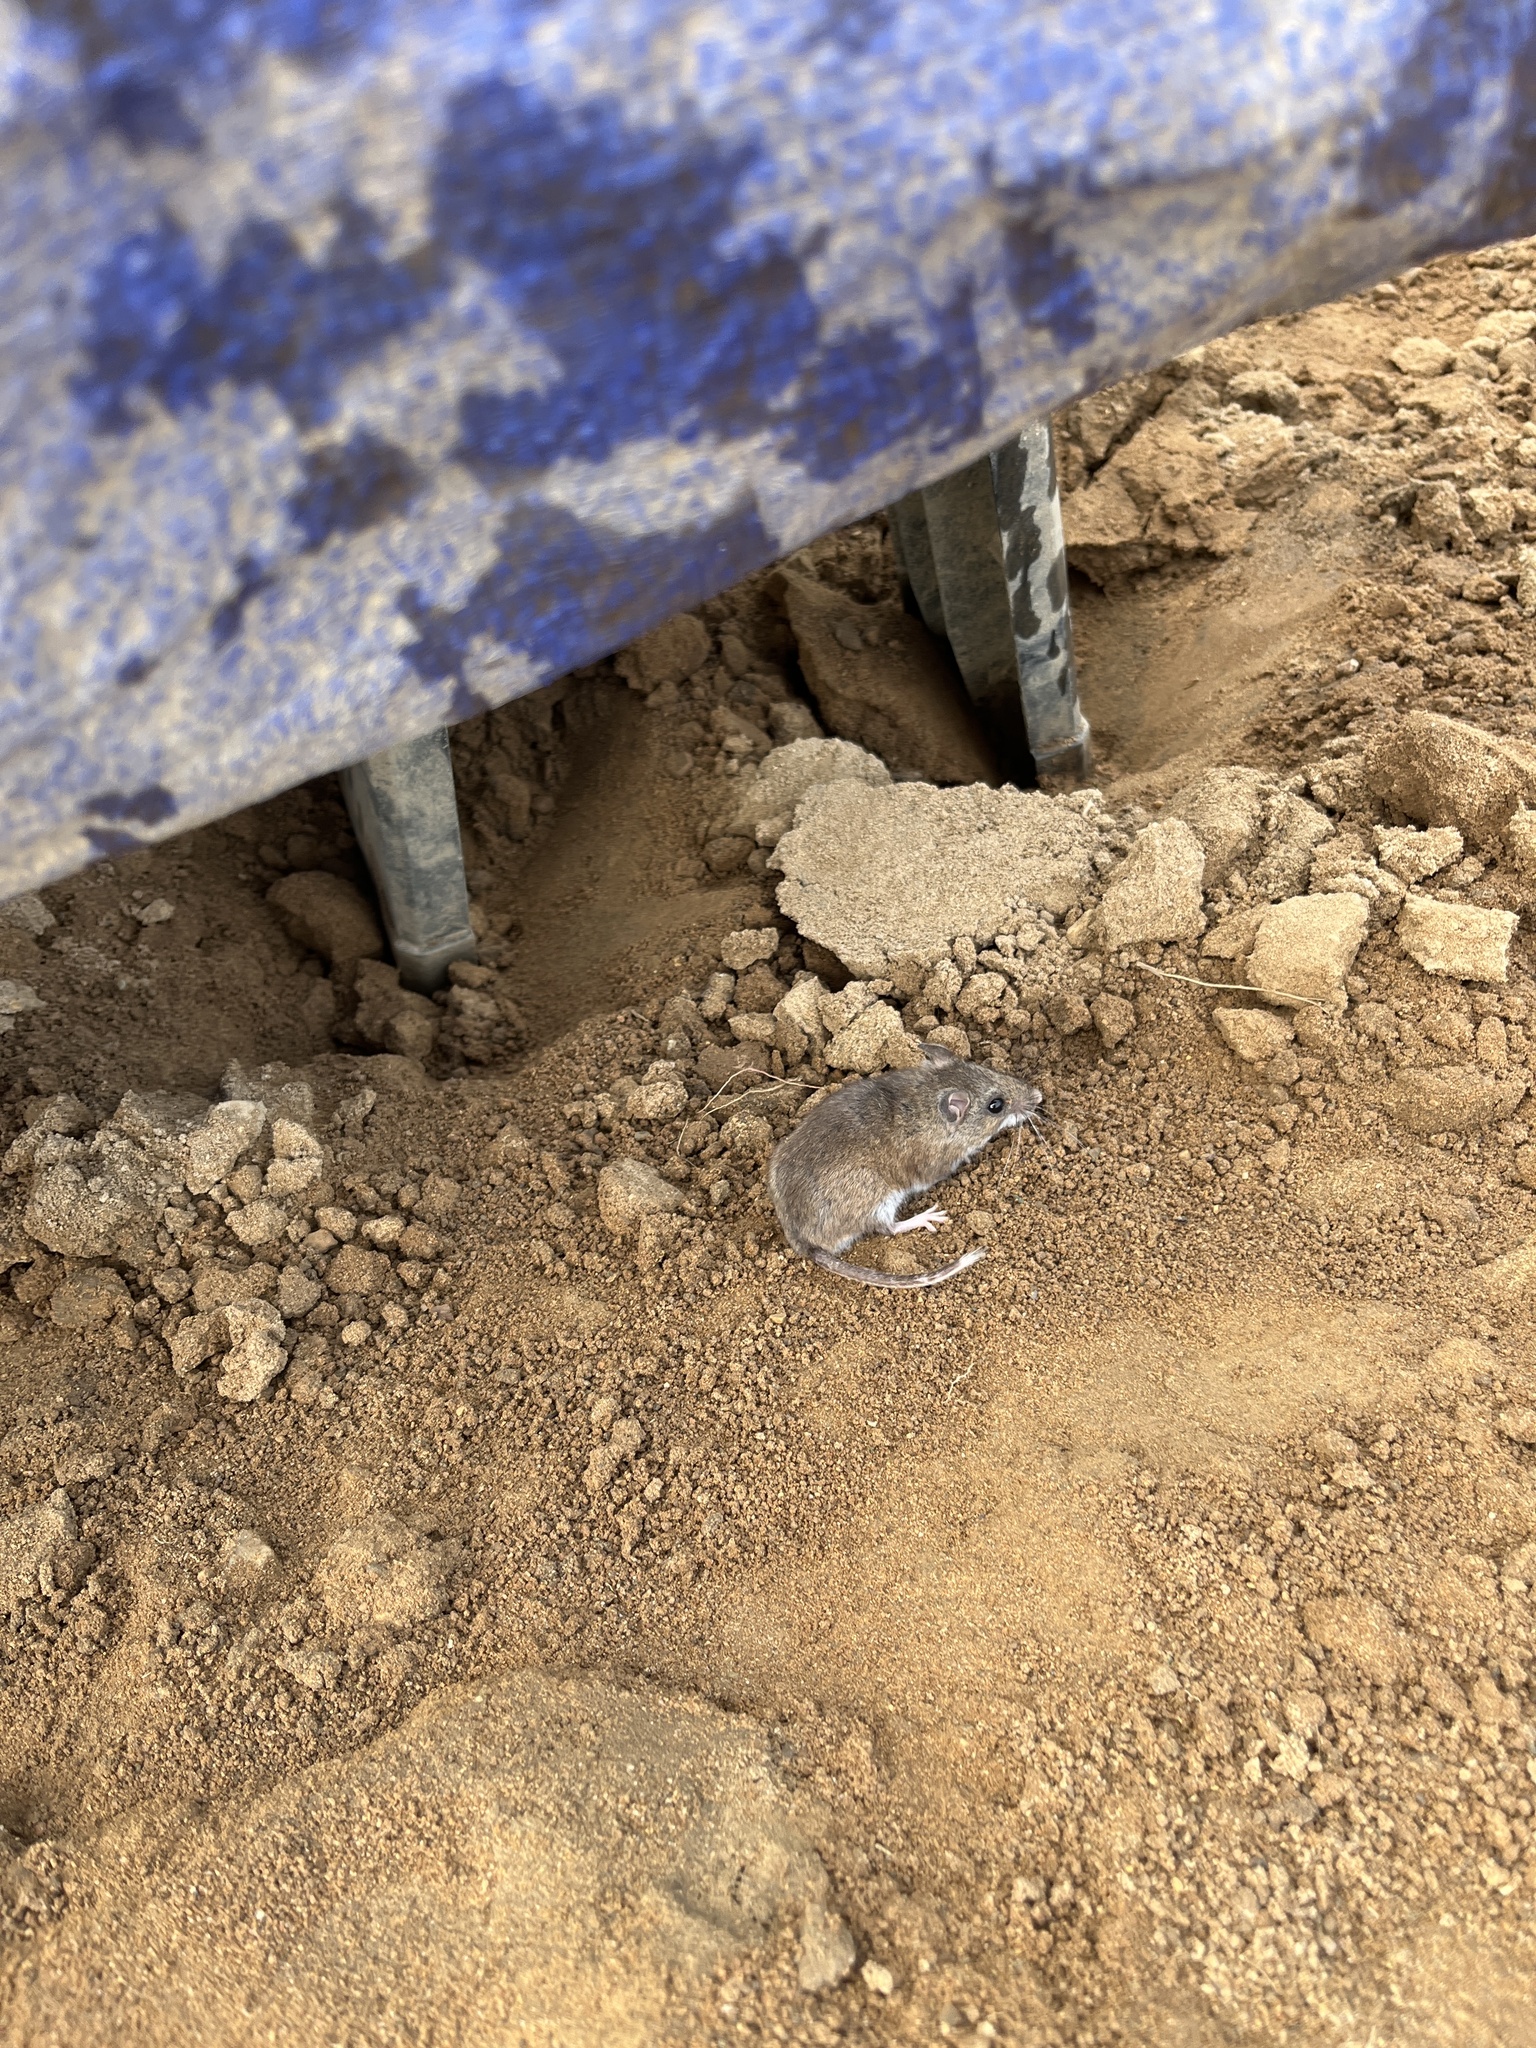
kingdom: Animalia
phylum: Chordata
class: Mammalia
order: Rodentia
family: Cricetidae
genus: Peromyscus
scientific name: Peromyscus
